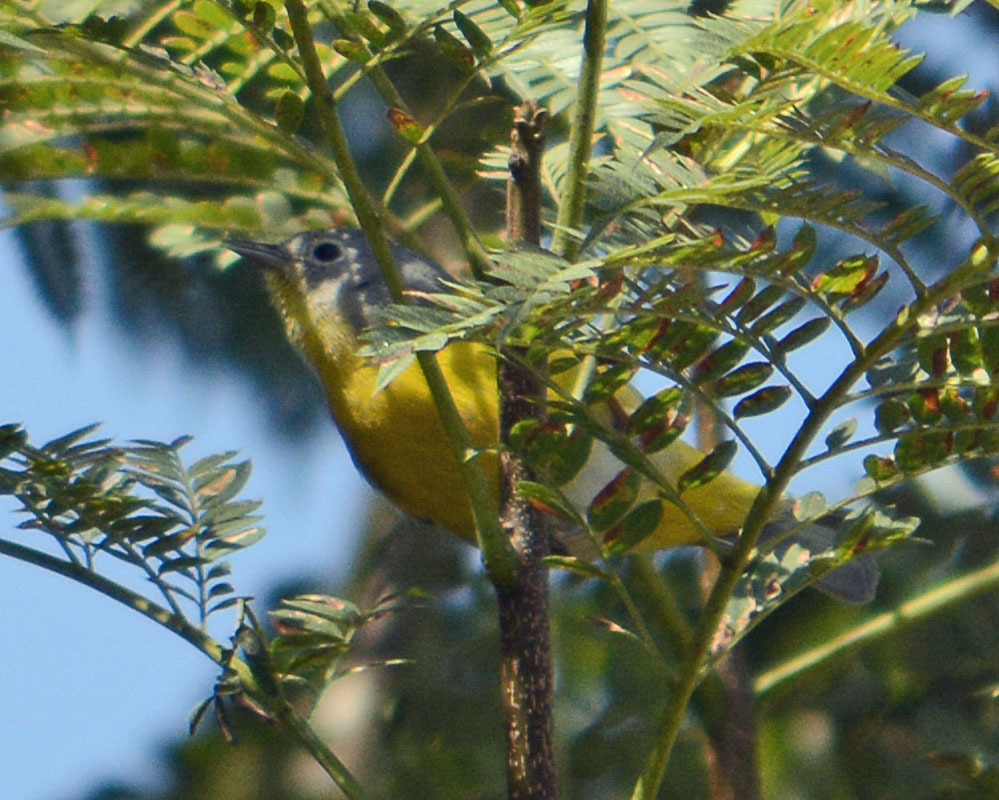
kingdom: Animalia
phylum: Chordata
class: Aves
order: Passeriformes
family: Parulidae
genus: Leiothlypis
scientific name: Leiothlypis ruficapilla
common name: Nashville warbler
